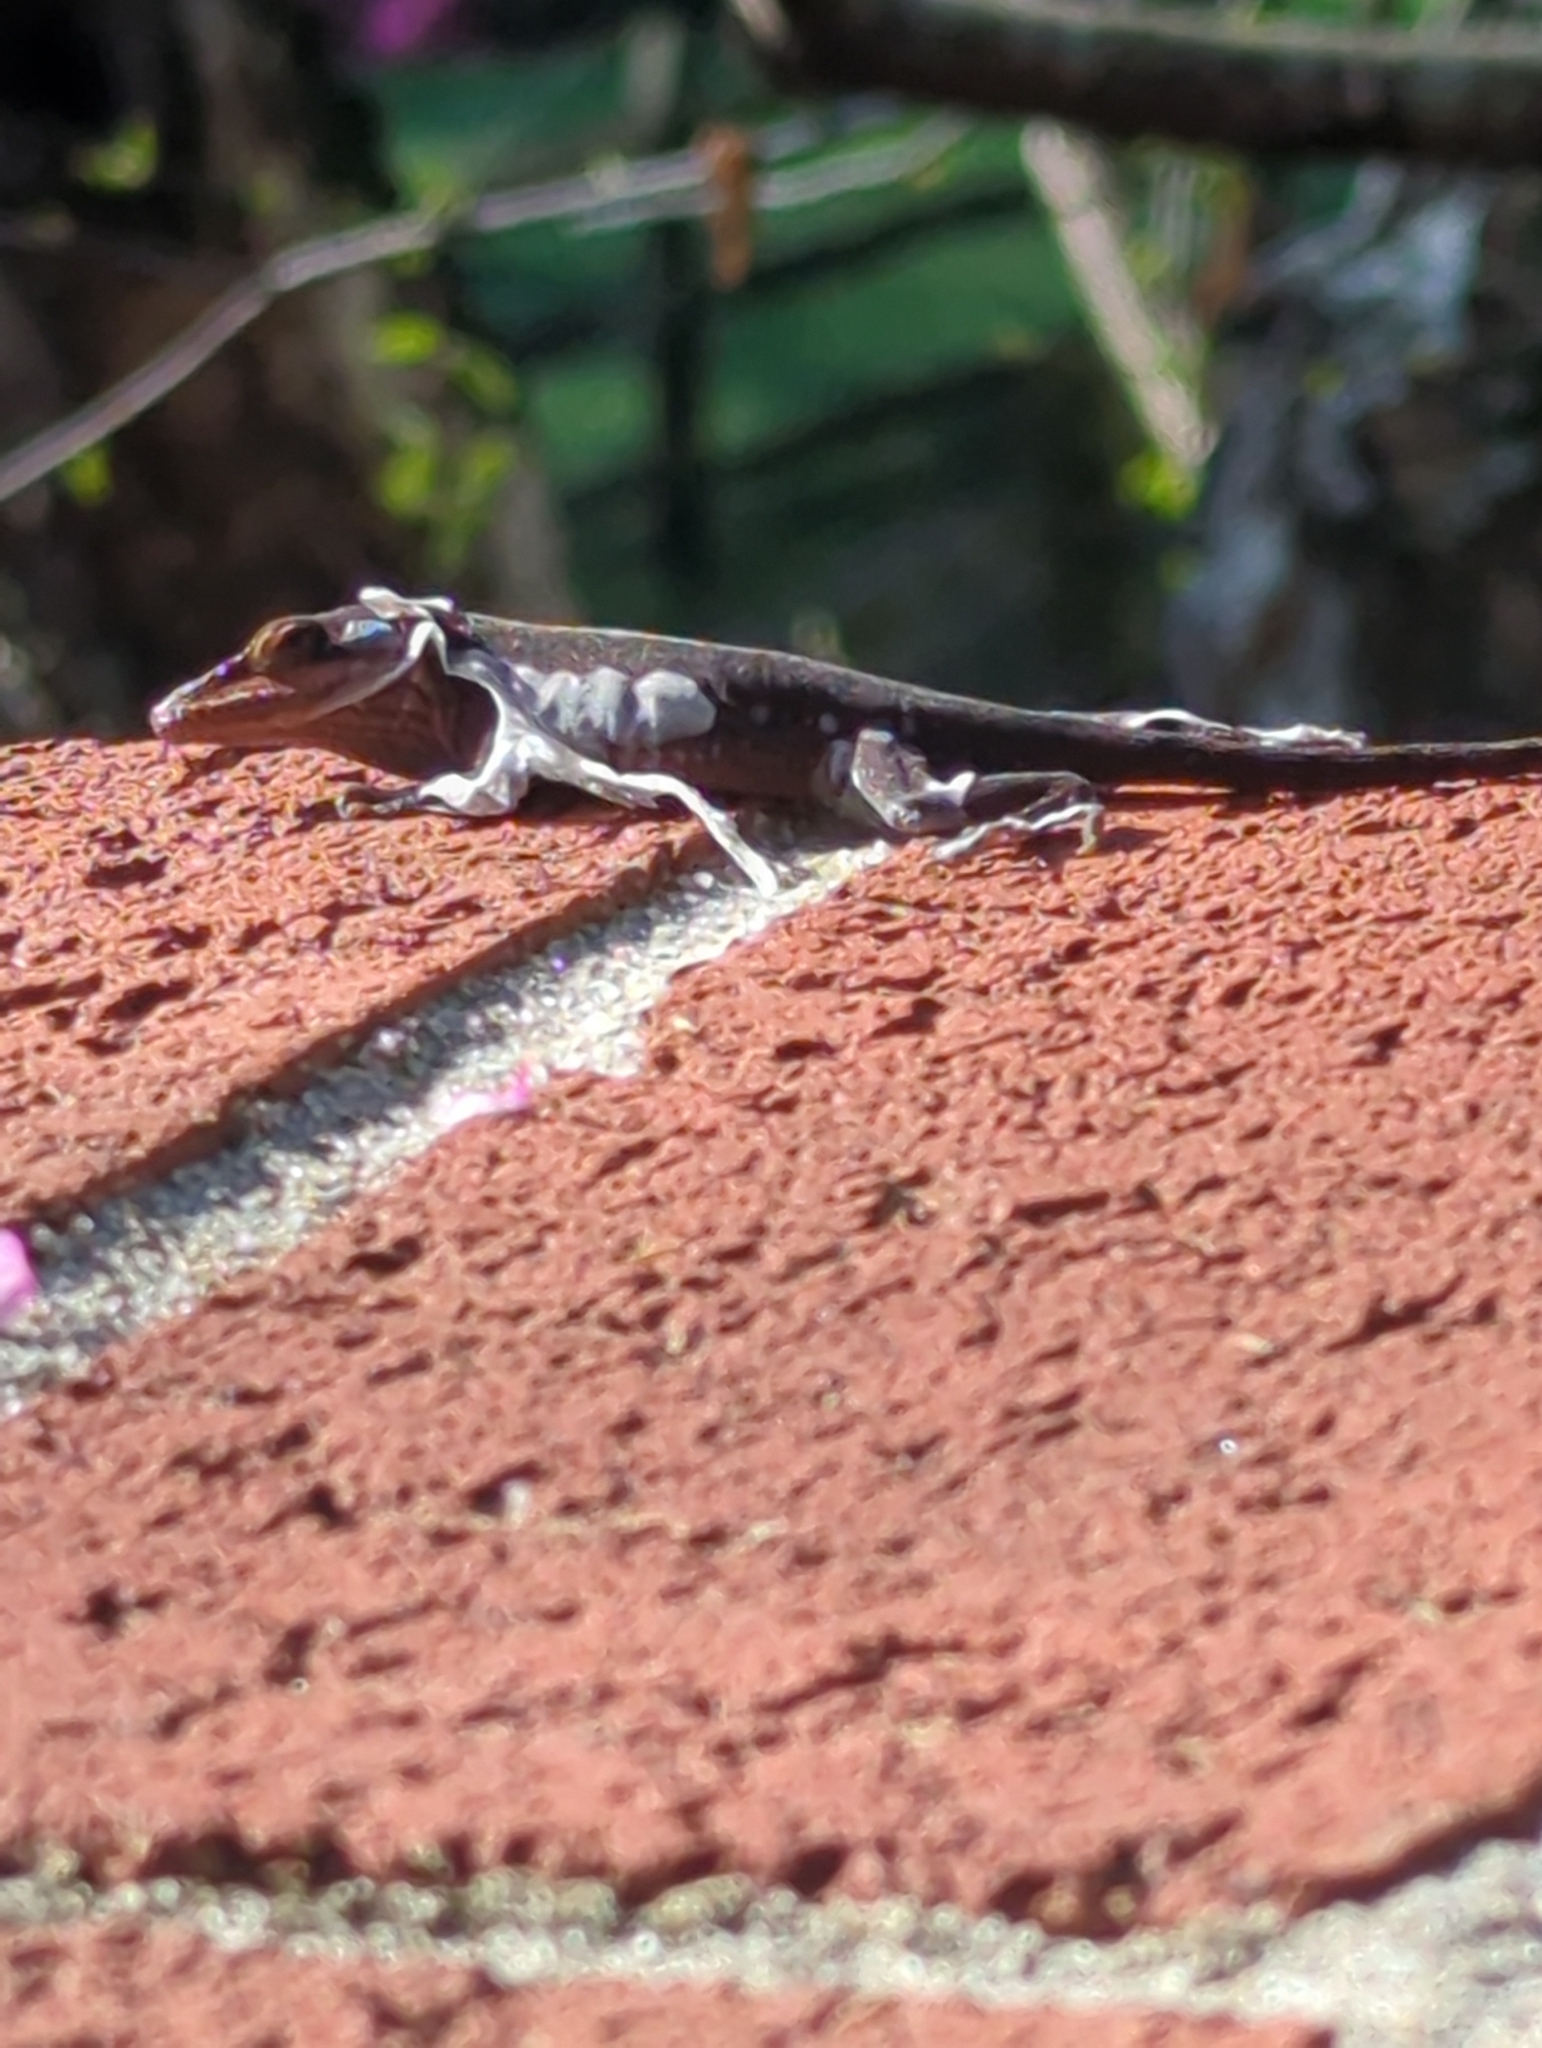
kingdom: Animalia
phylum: Chordata
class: Squamata
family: Dactyloidae
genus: Anolis
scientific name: Anolis carolinensis
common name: Green anole
